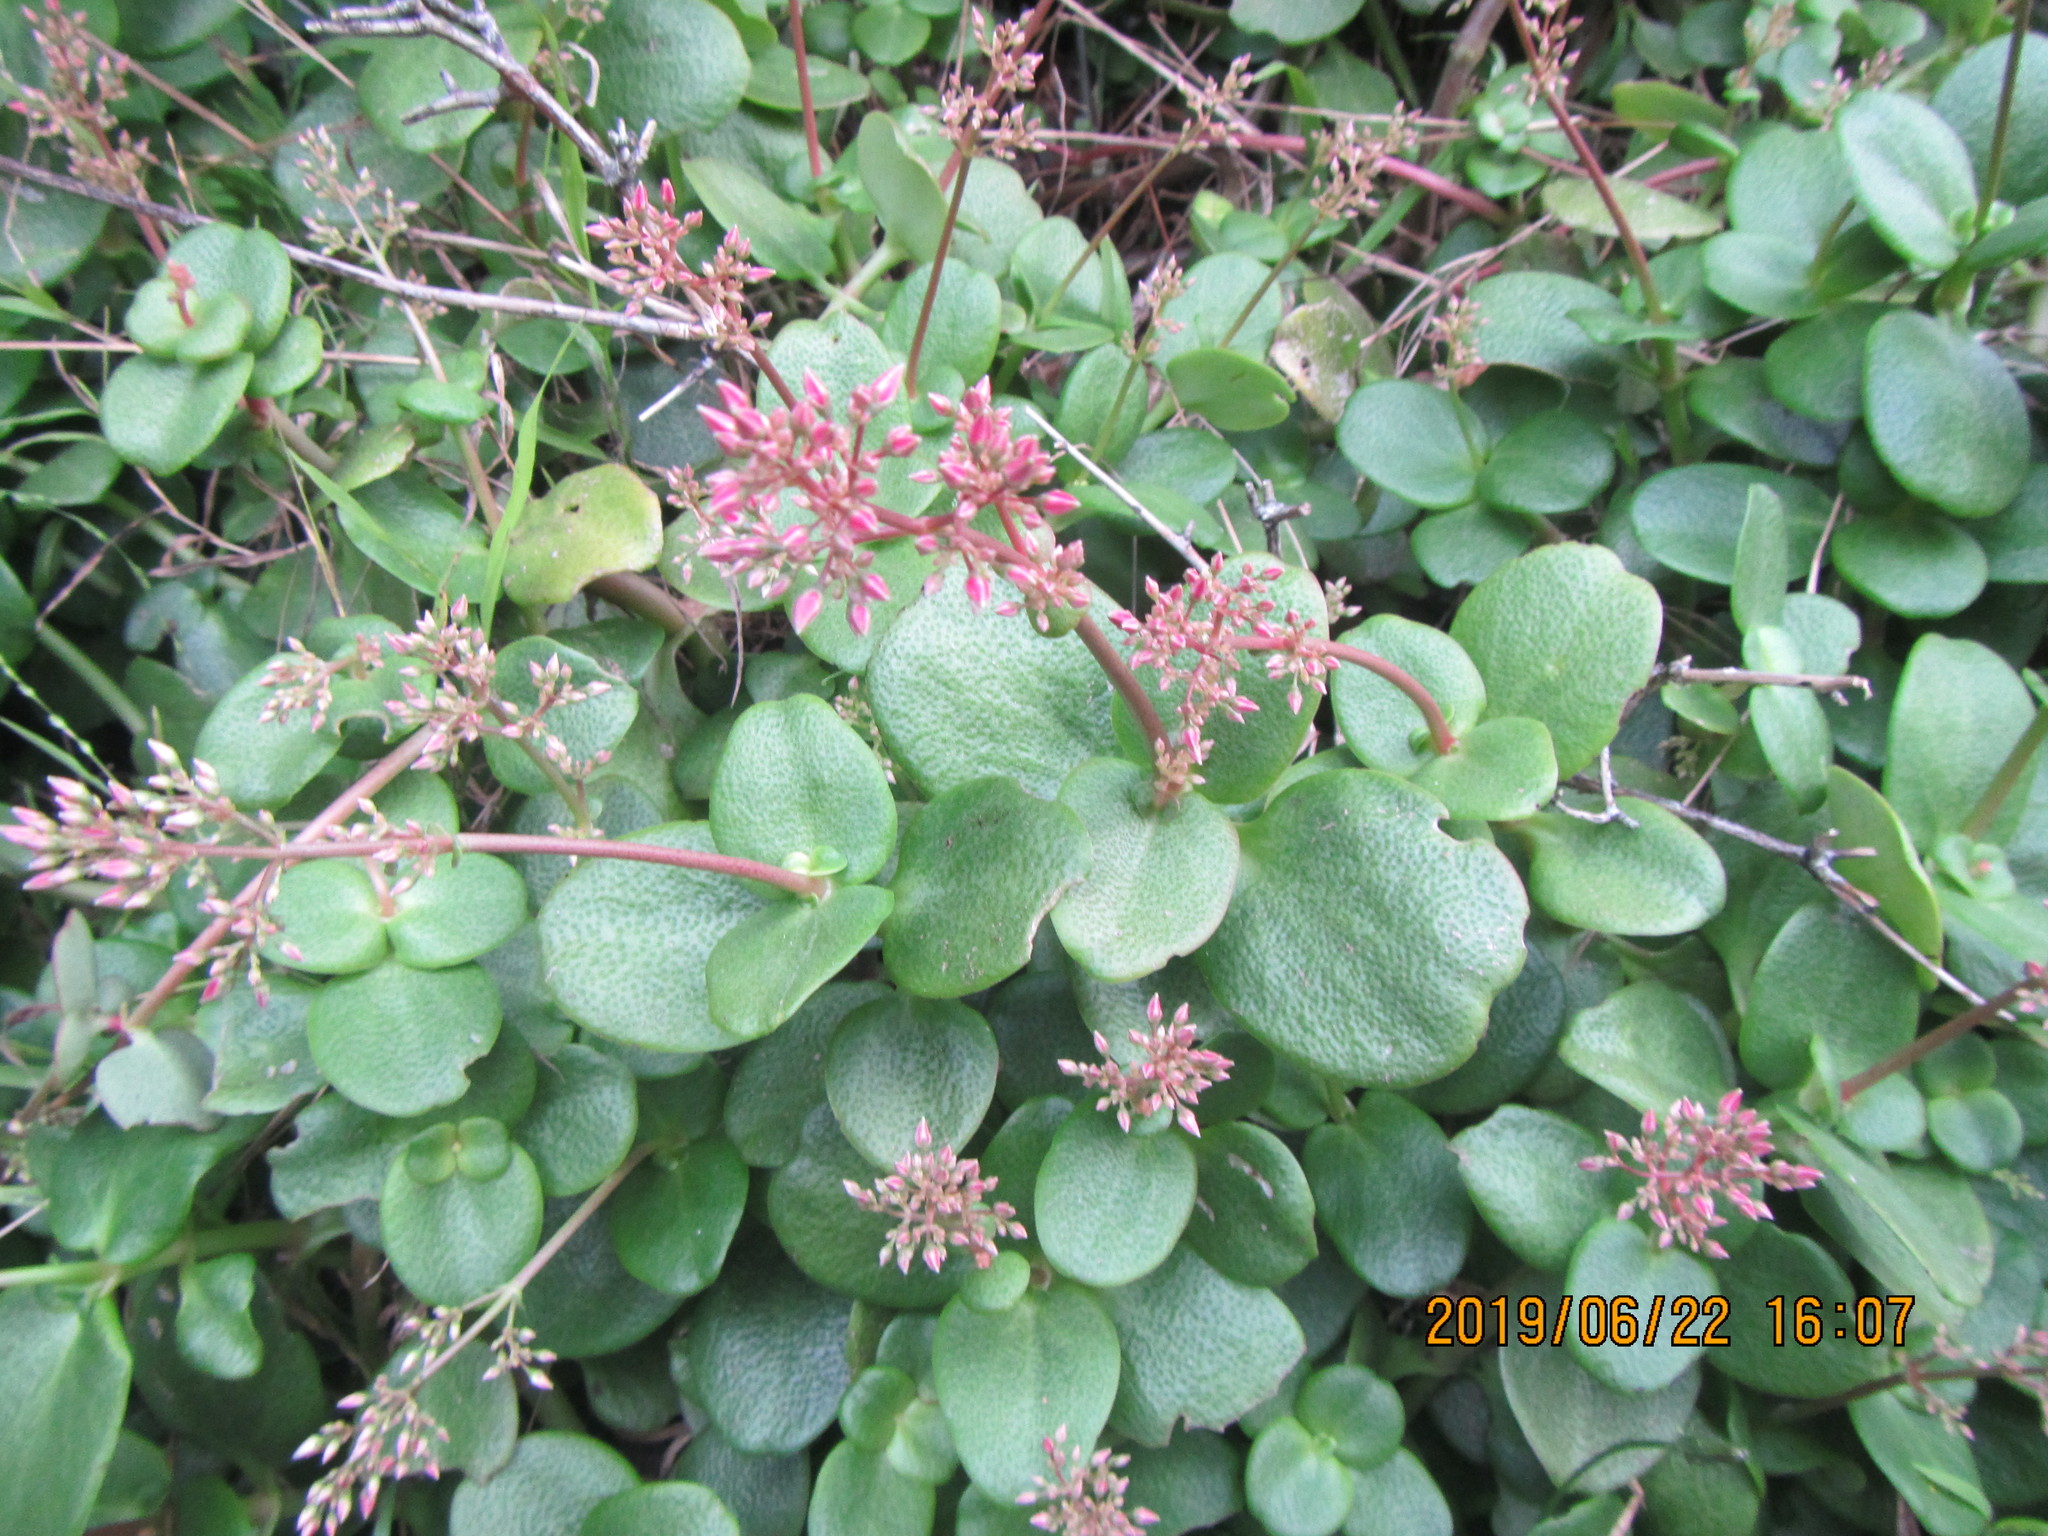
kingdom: Plantae
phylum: Tracheophyta
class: Magnoliopsida
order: Saxifragales
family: Crassulaceae
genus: Crassula
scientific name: Crassula multicava
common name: Cape province pygmyweed
